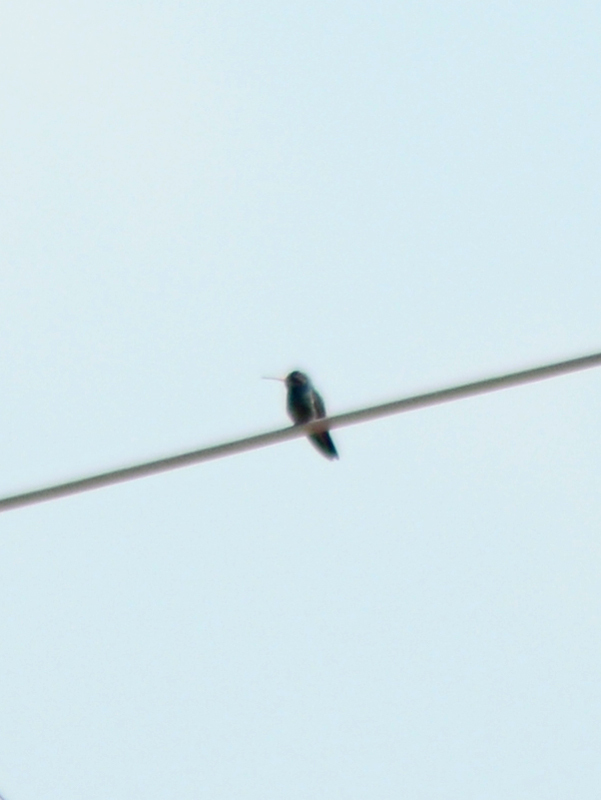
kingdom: Animalia
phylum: Chordata
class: Aves
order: Apodiformes
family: Trochilidae
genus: Cynanthus
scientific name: Cynanthus latirostris
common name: Broad-billed hummingbird
